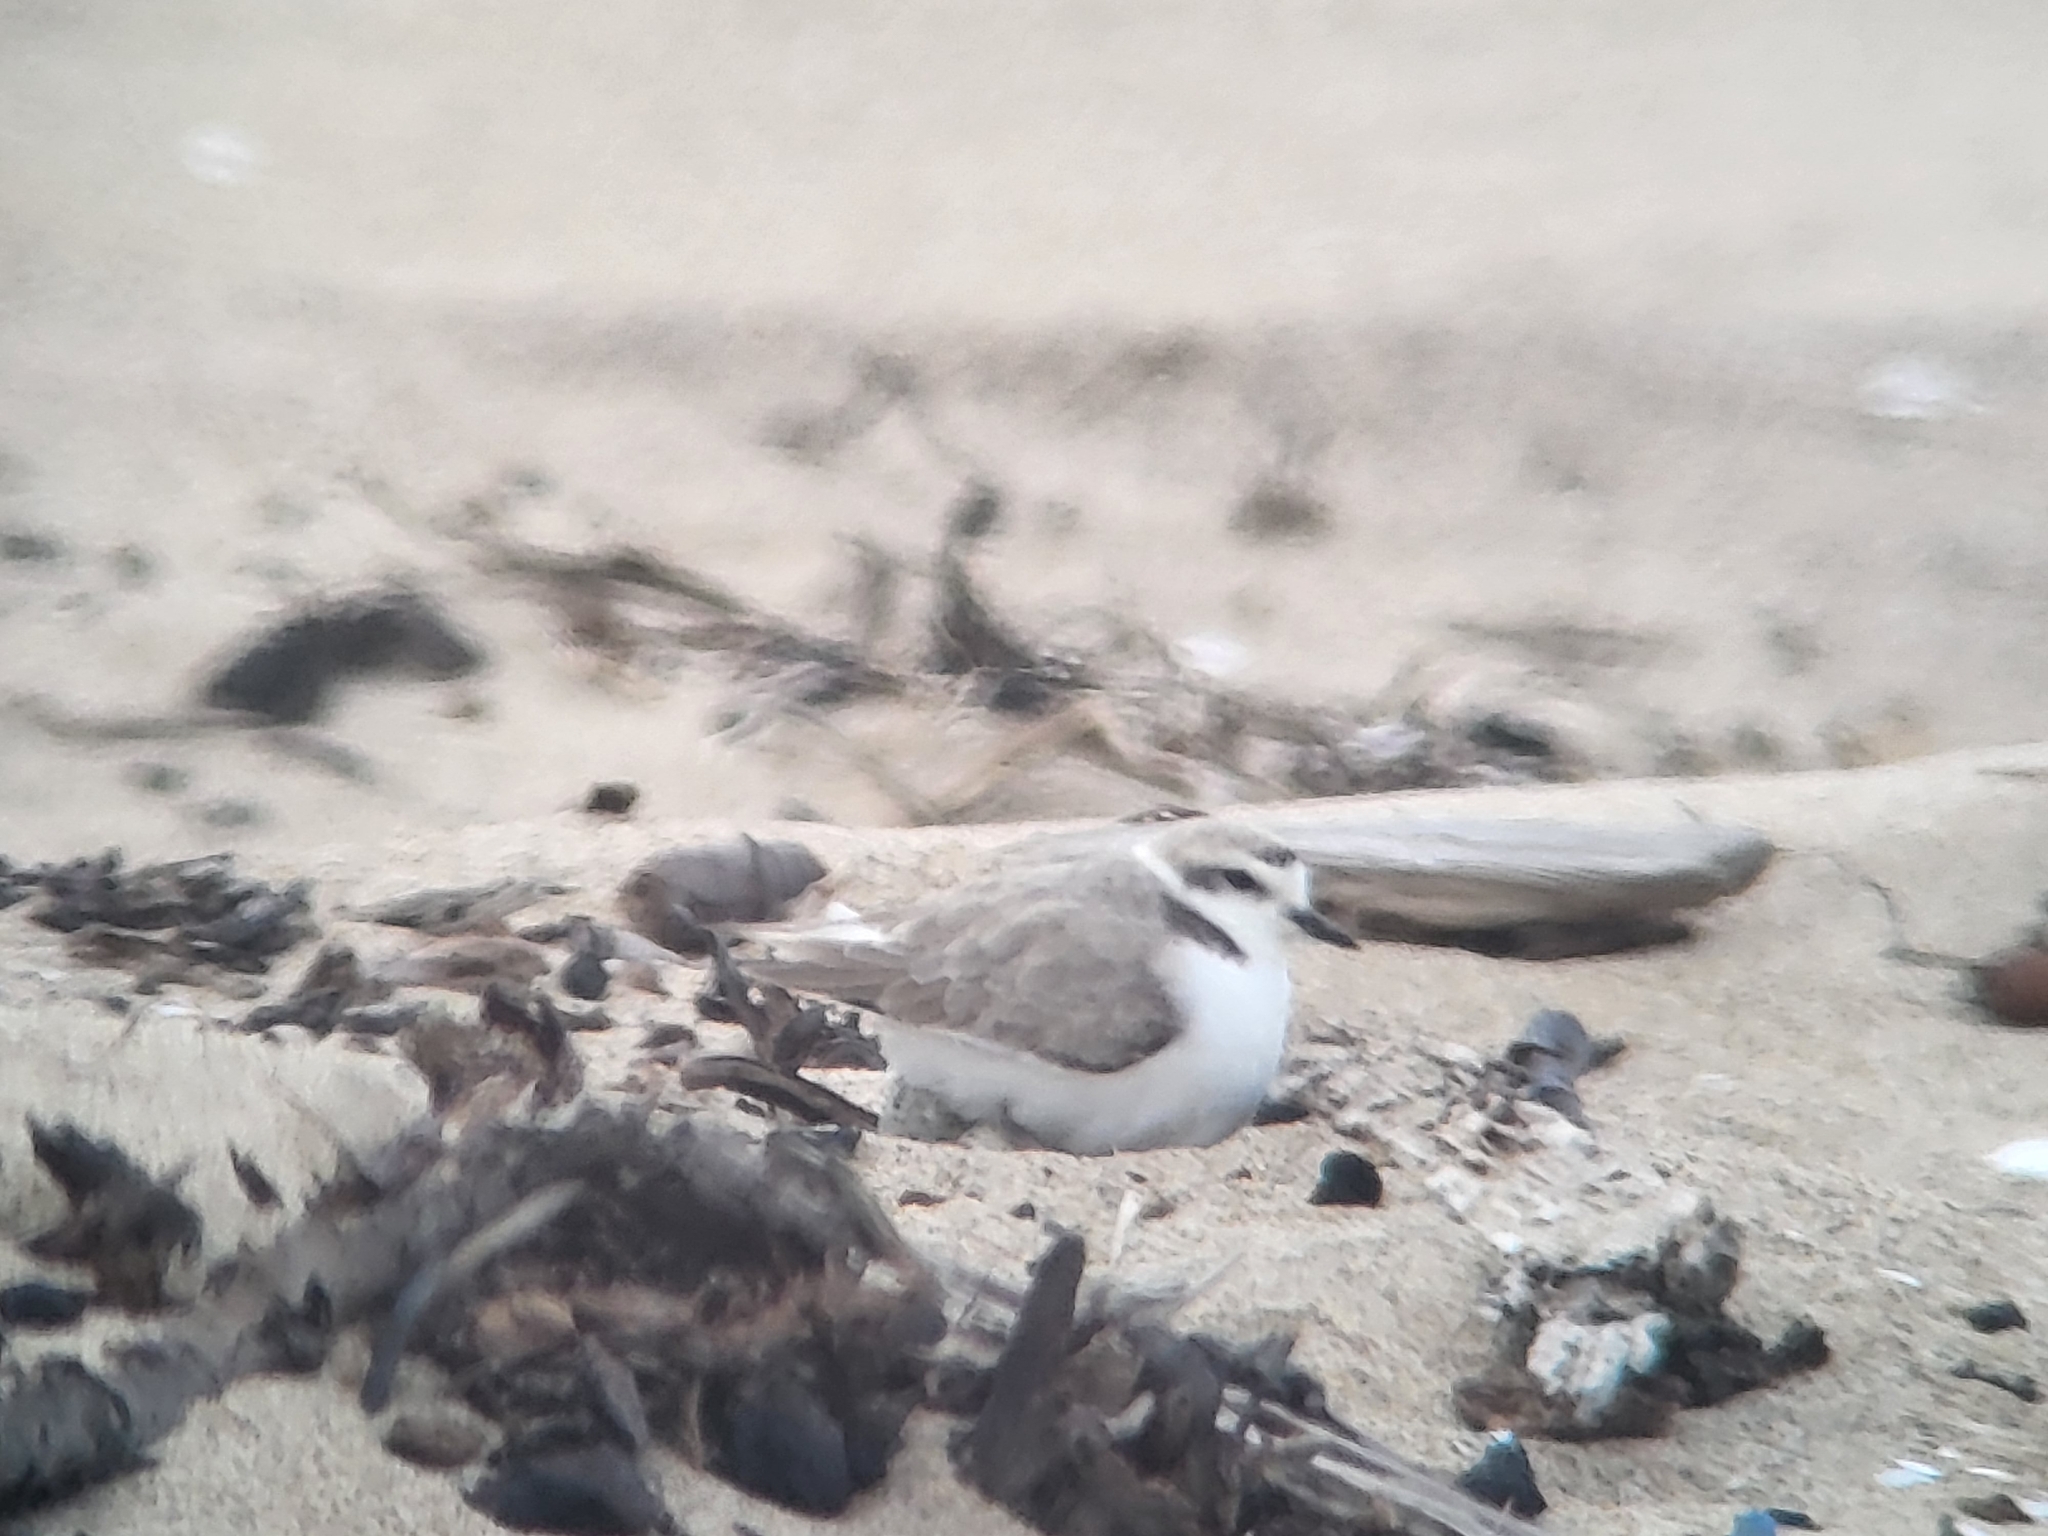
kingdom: Animalia
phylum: Chordata
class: Aves
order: Charadriiformes
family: Charadriidae
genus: Anarhynchus
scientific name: Anarhynchus
